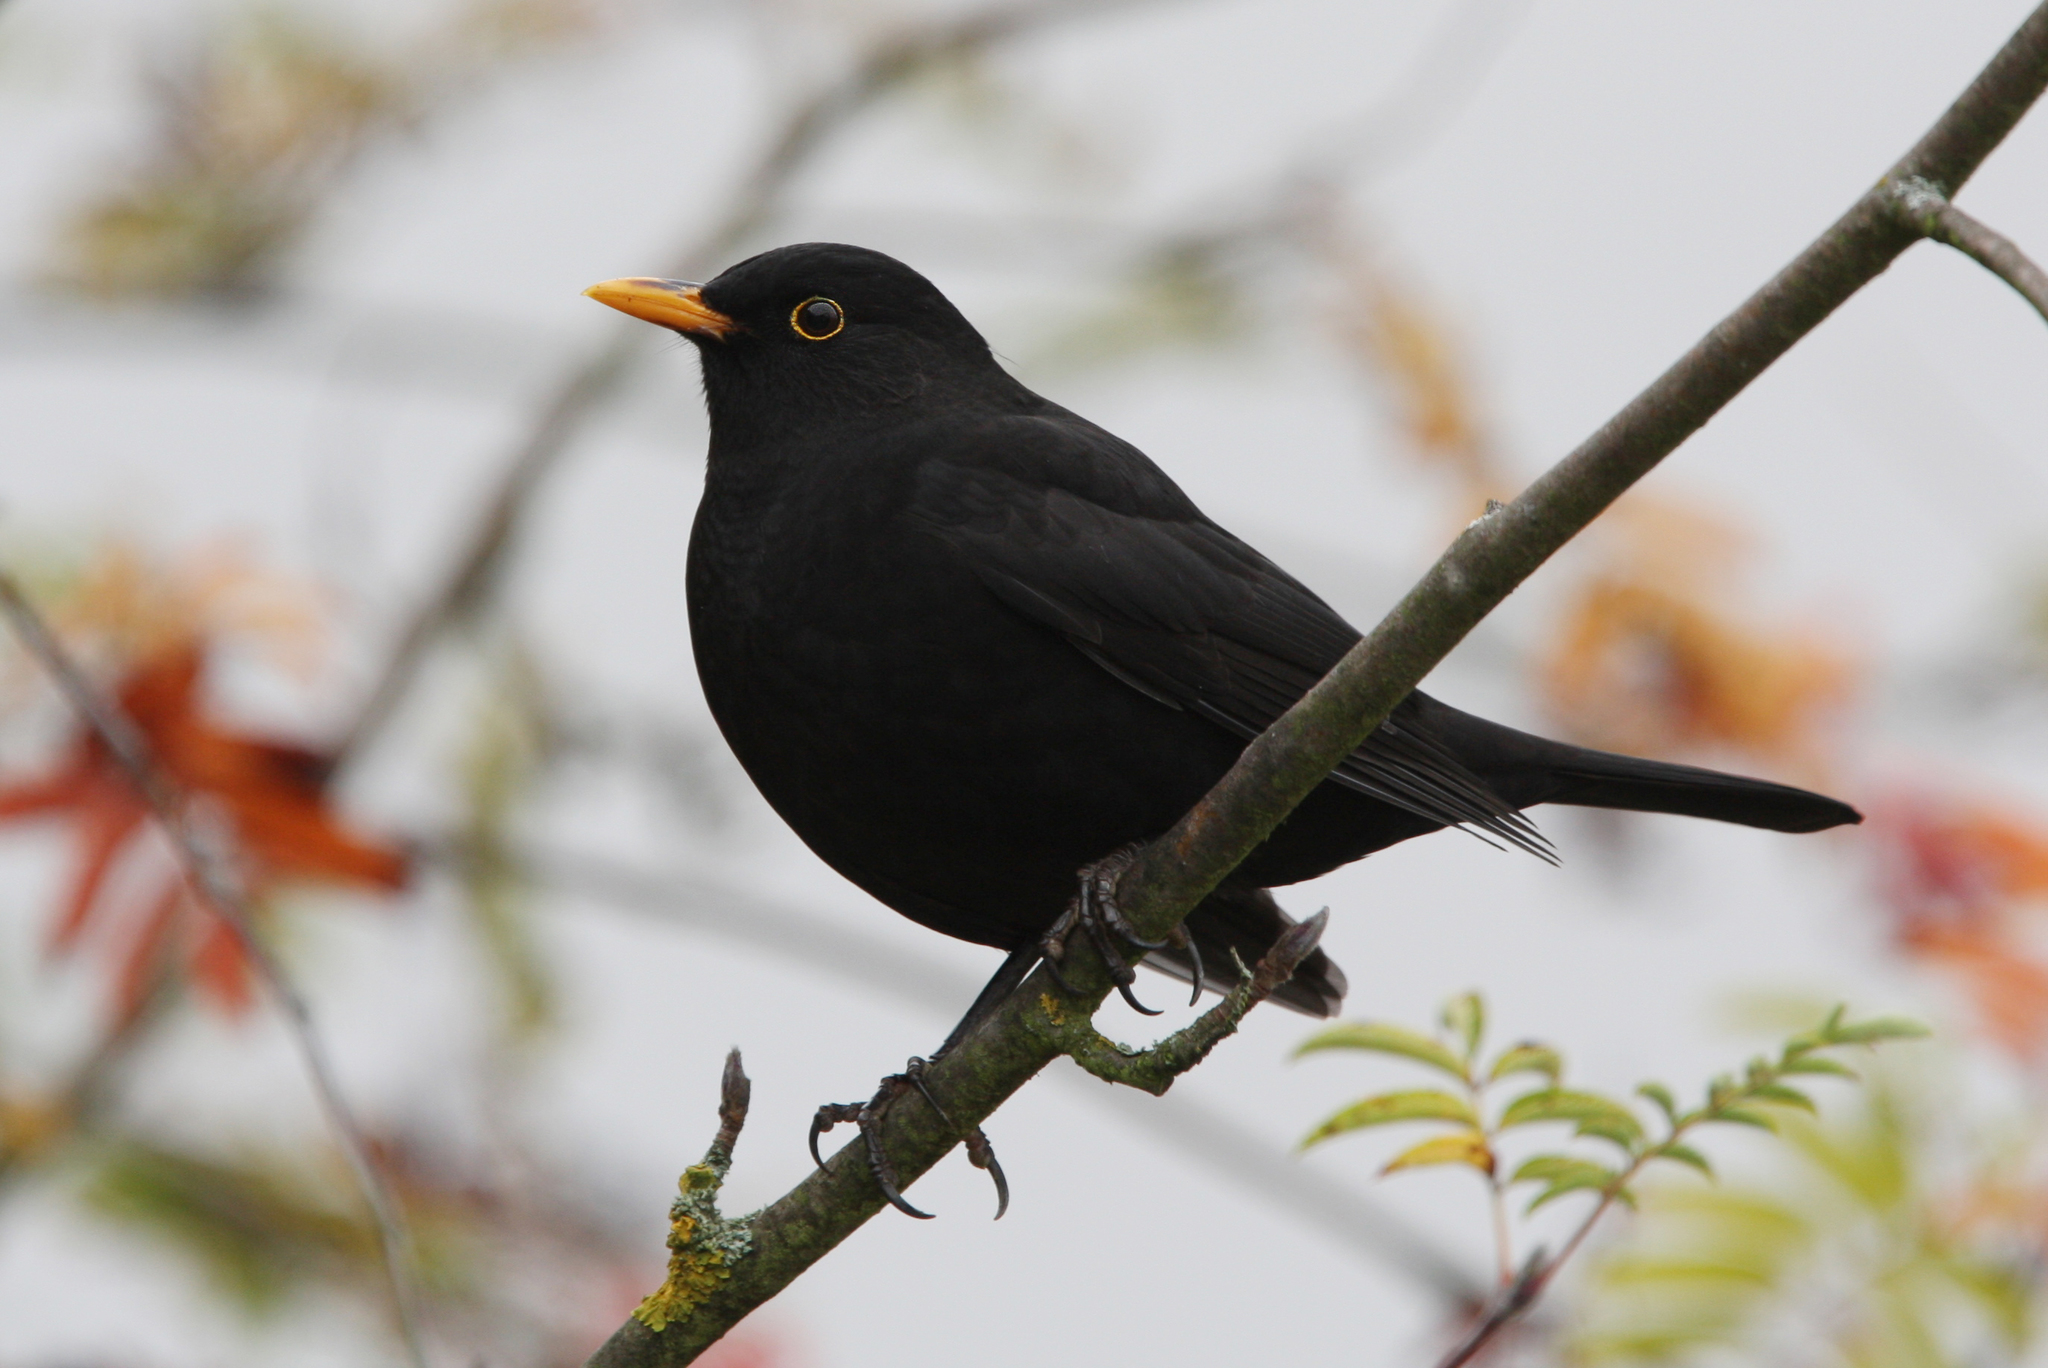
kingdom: Animalia
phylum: Chordata
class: Aves
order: Passeriformes
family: Turdidae
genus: Turdus
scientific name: Turdus merula
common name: Common blackbird
